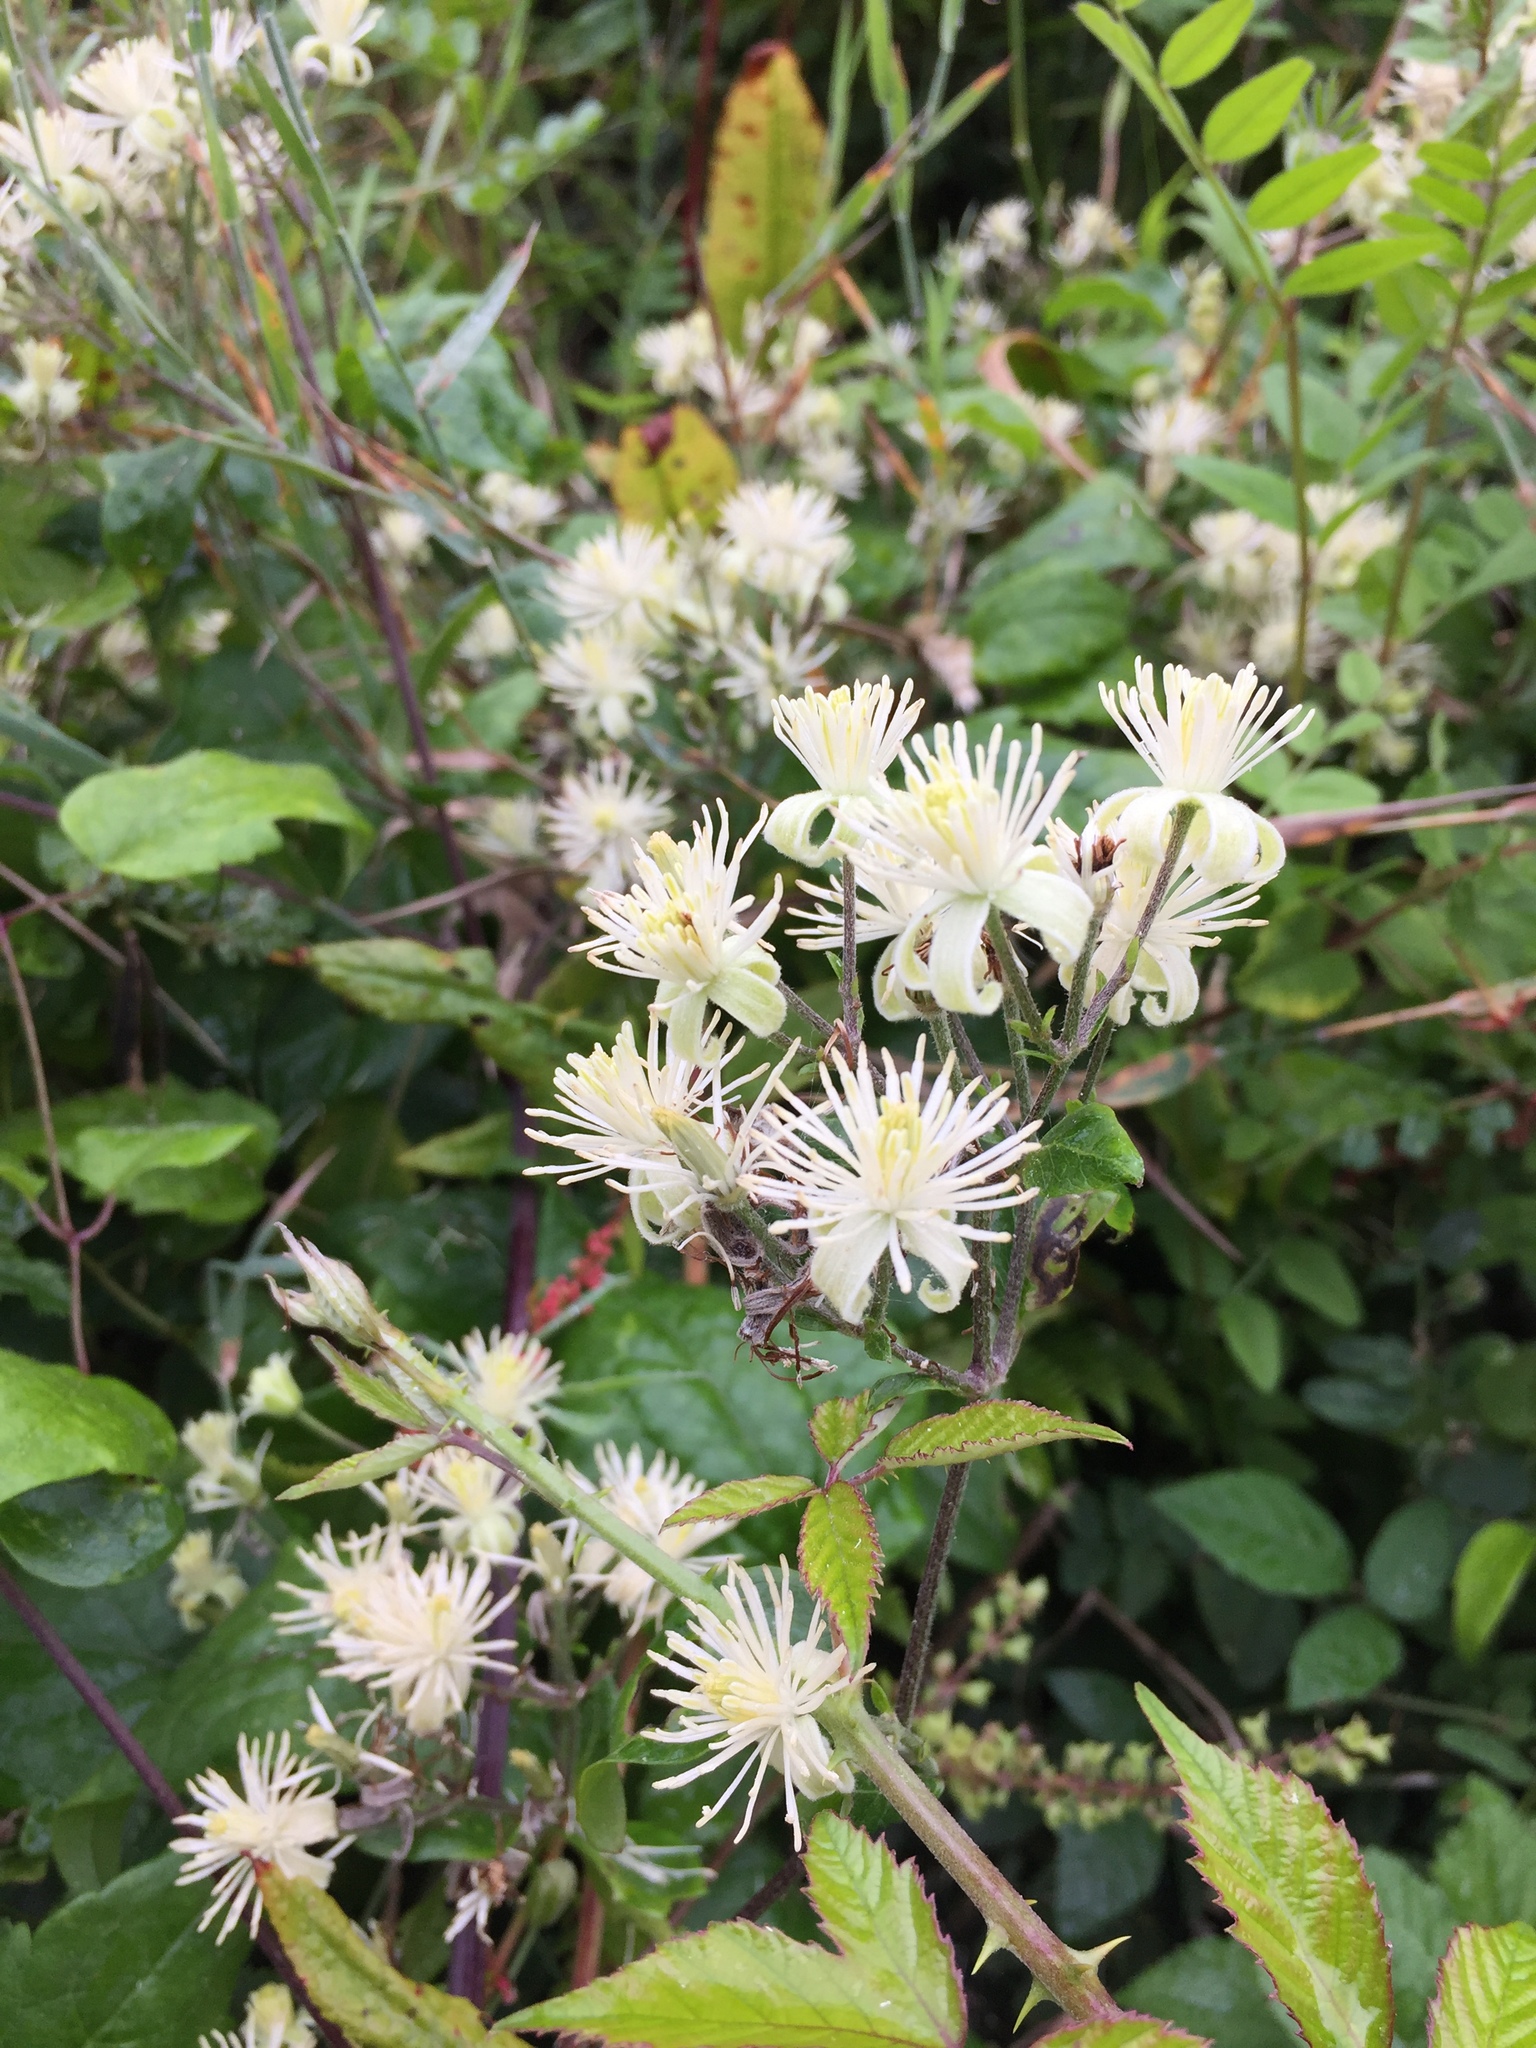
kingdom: Plantae
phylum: Tracheophyta
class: Magnoliopsida
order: Ranunculales
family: Ranunculaceae
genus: Clematis
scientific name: Clematis vitalba
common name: Evergreen clematis
